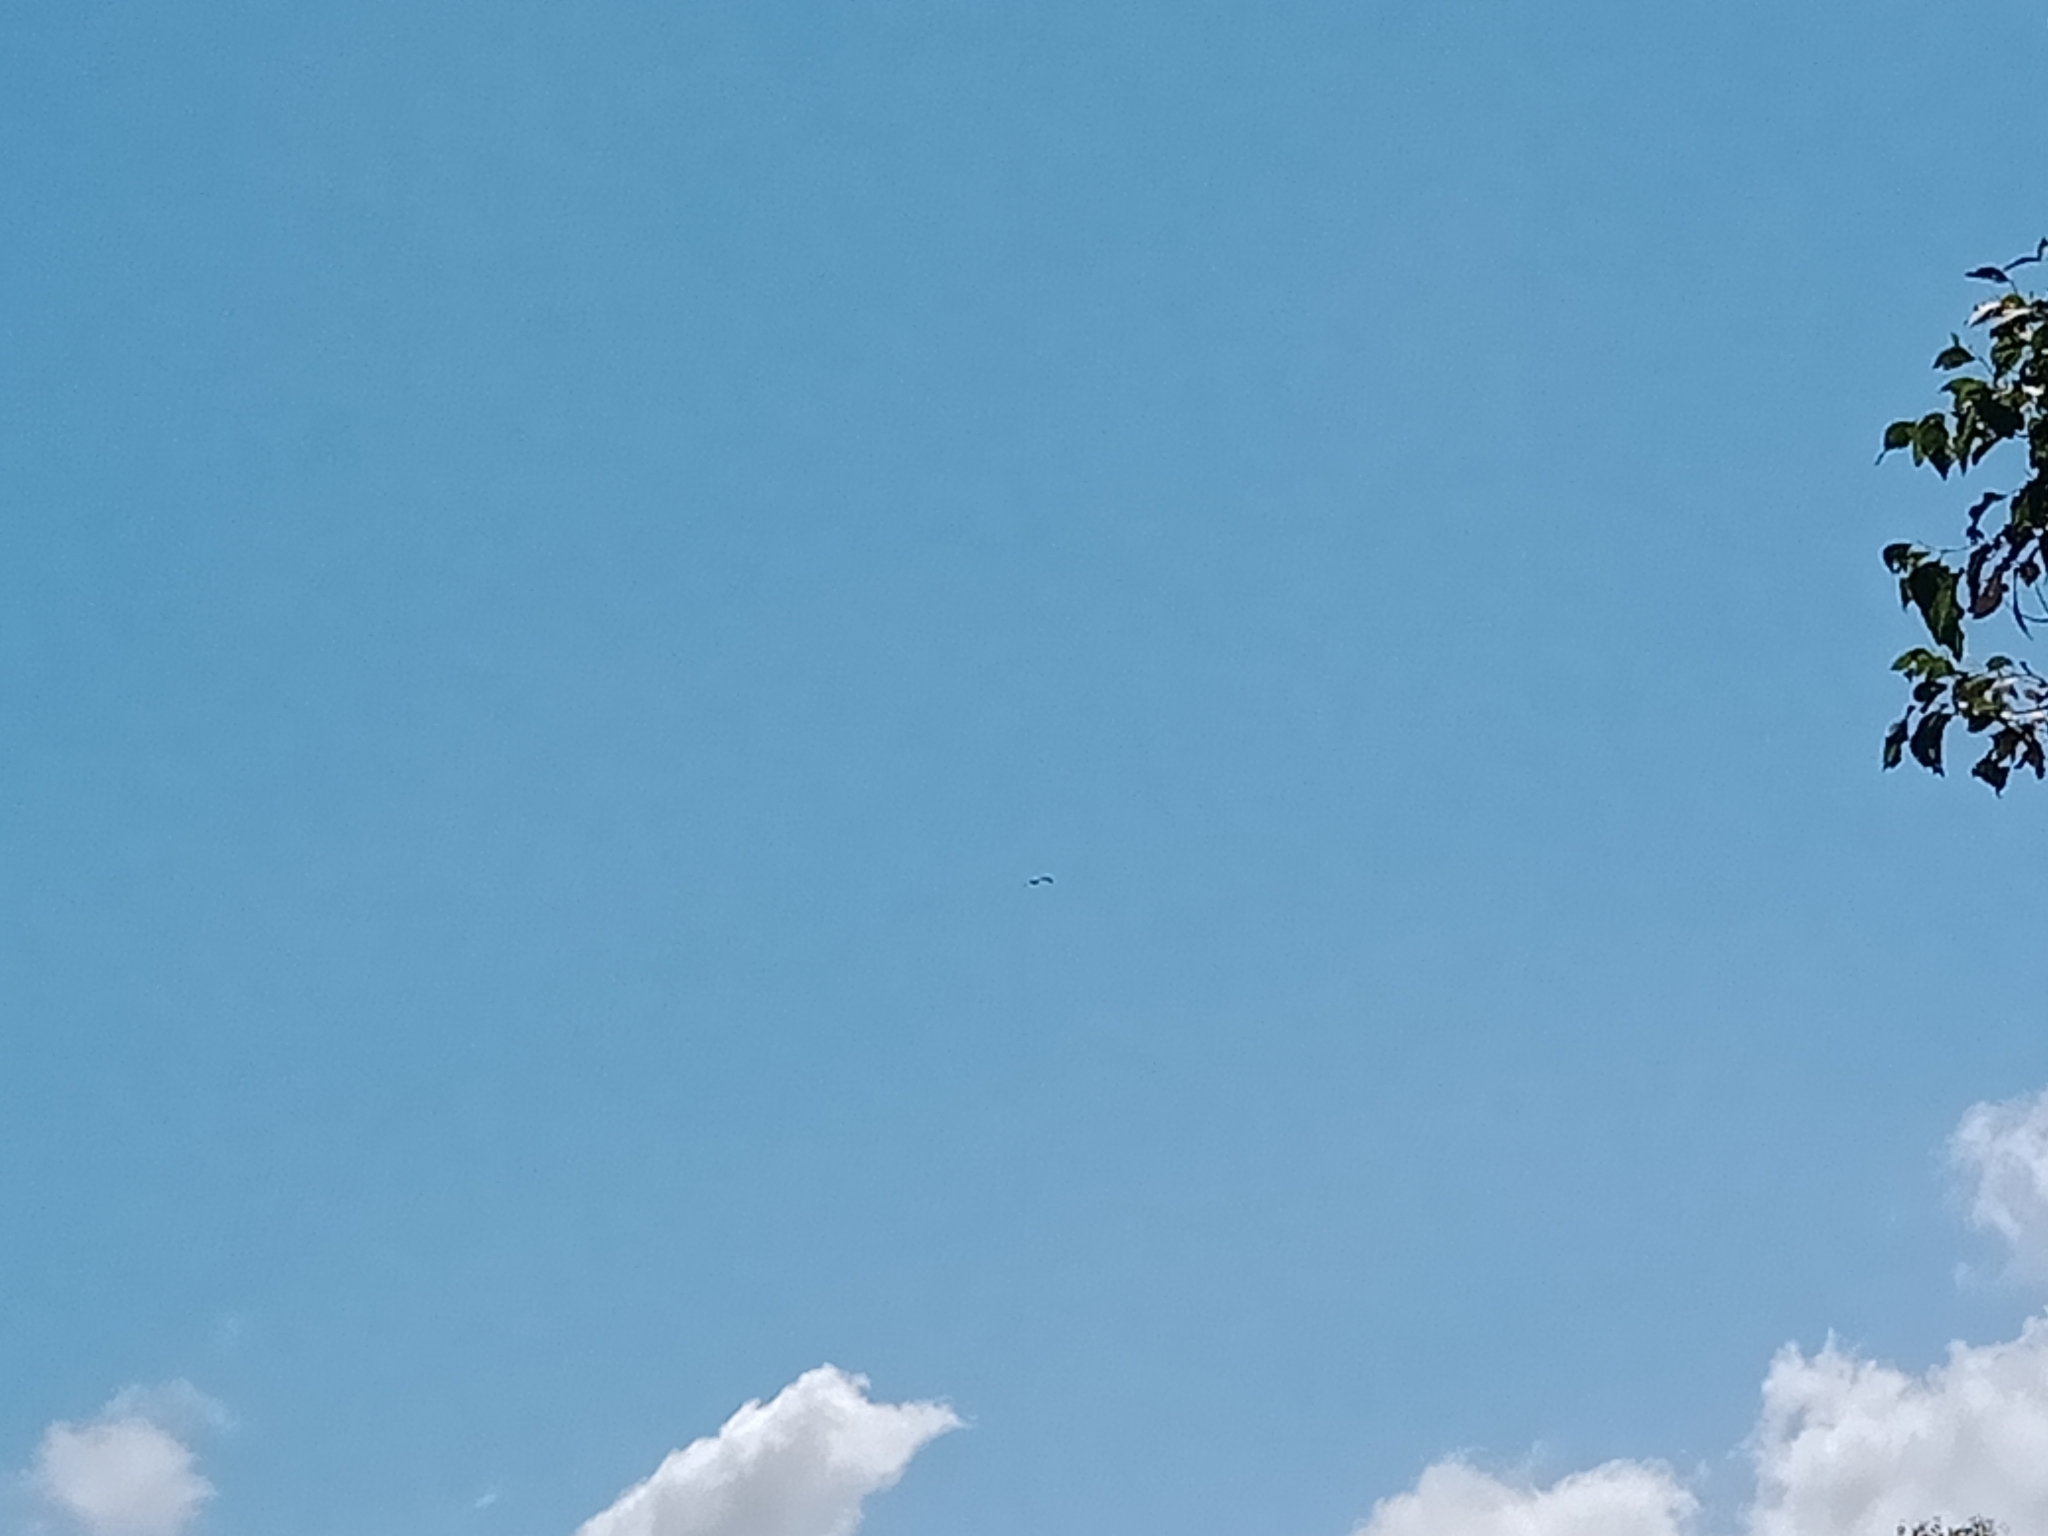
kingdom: Animalia
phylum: Chordata
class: Aves
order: Pelecaniformes
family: Pelecanidae
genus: Pelecanus
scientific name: Pelecanus conspicillatus
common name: Australian pelican
